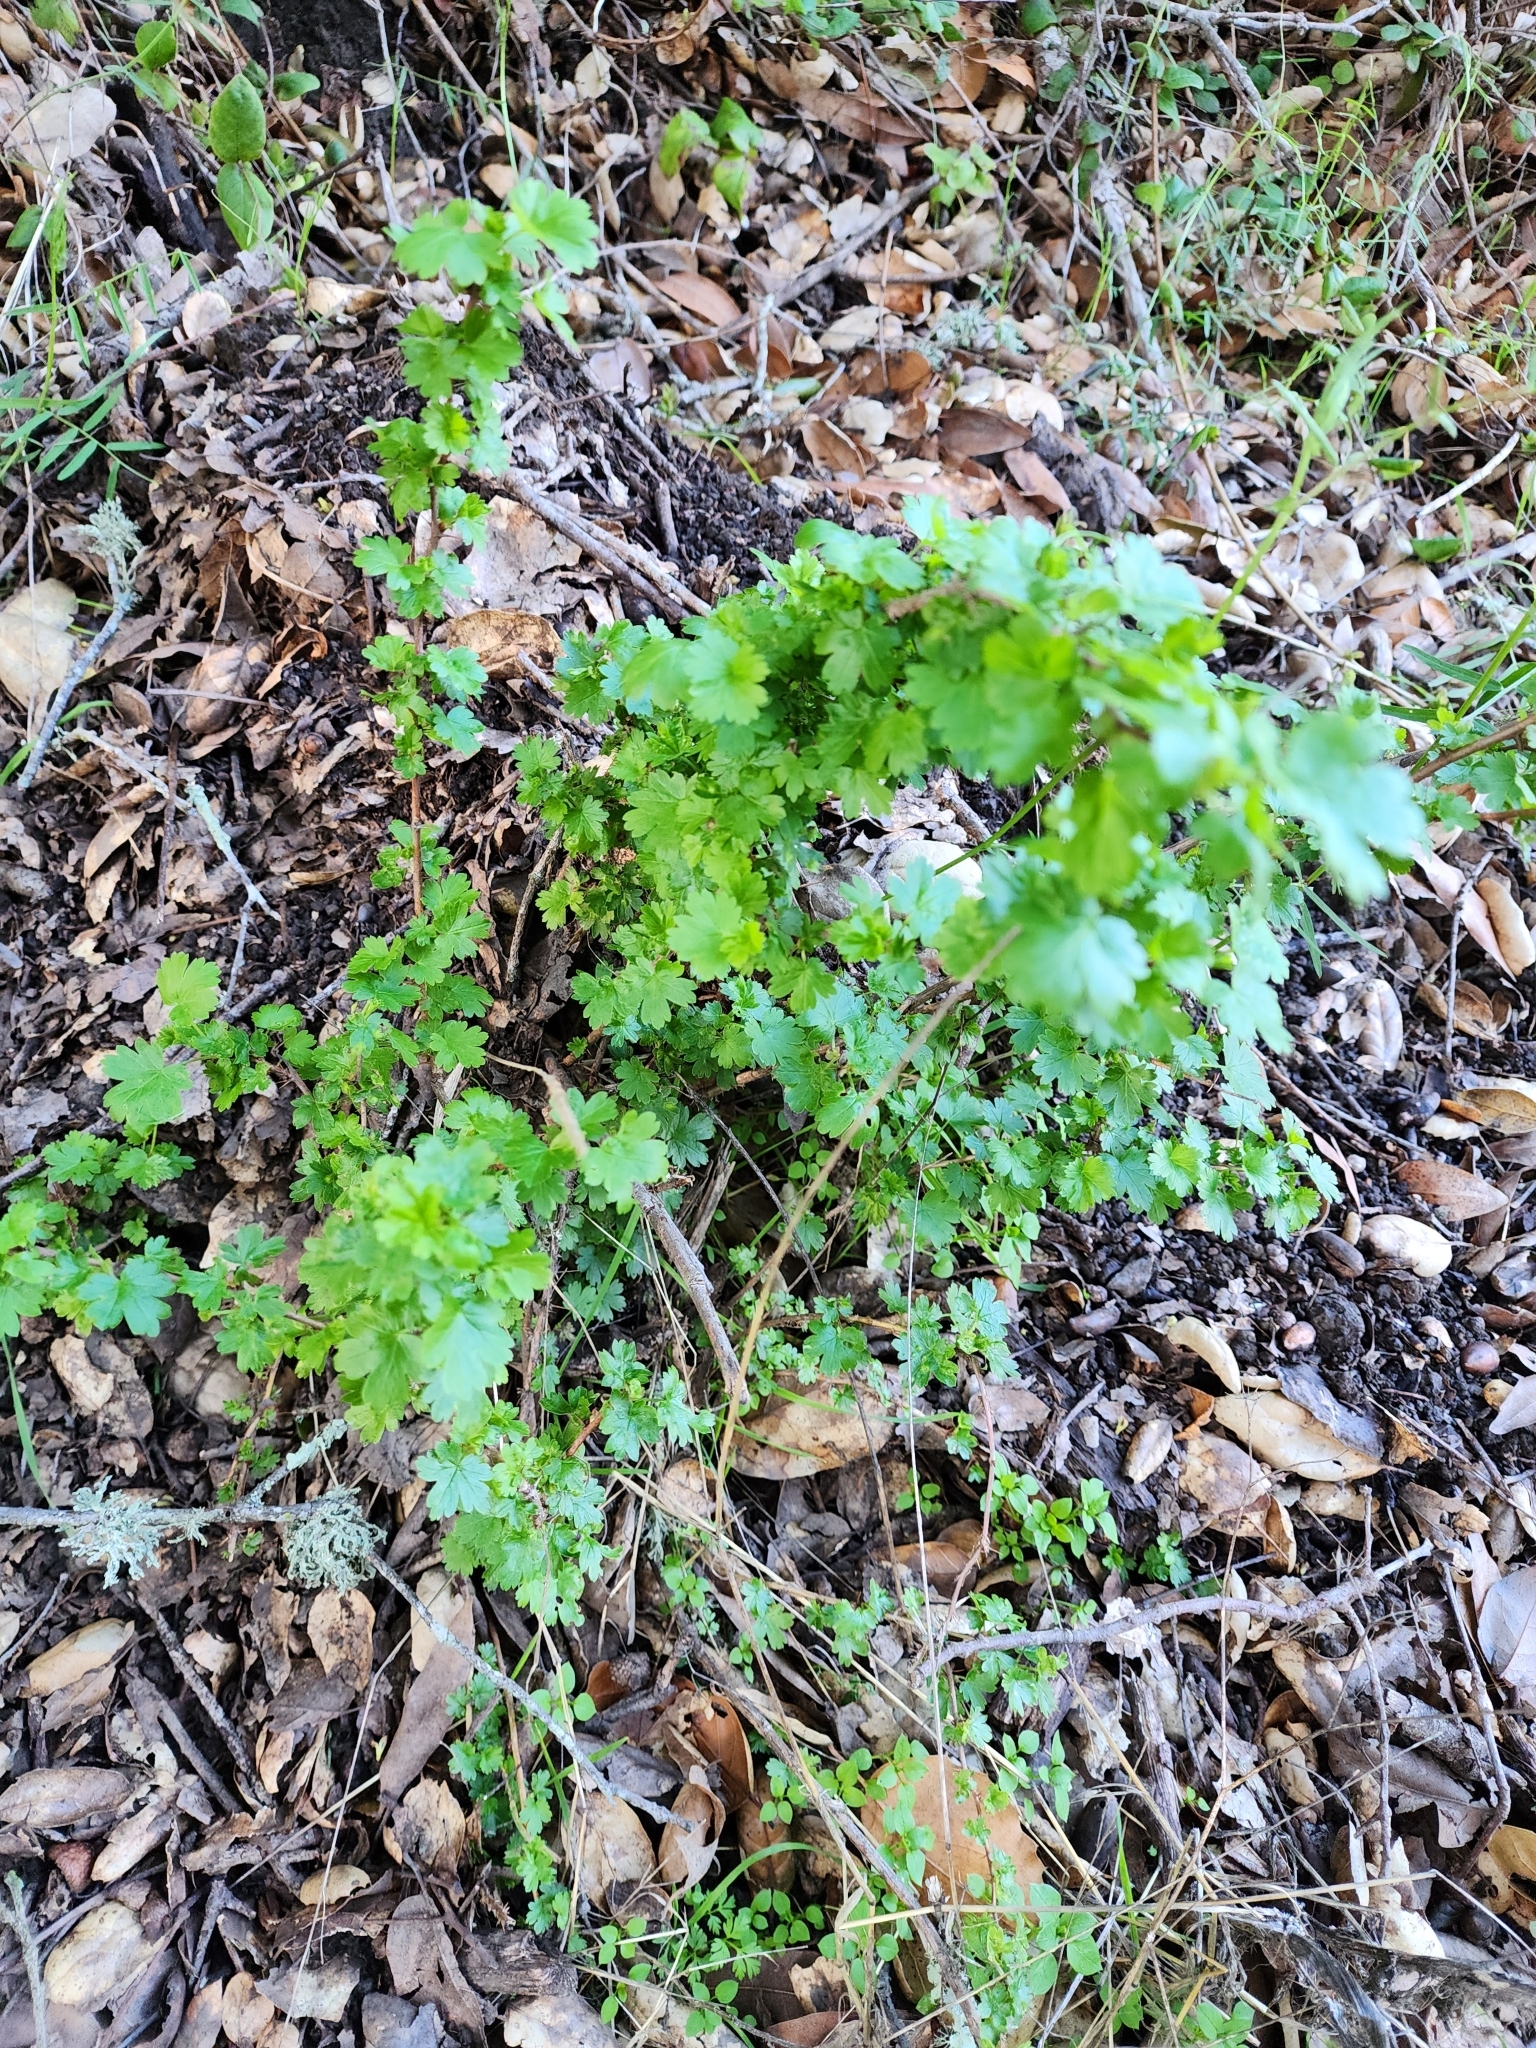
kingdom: Plantae
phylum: Tracheophyta
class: Magnoliopsida
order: Saxifragales
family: Grossulariaceae
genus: Ribes
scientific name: Ribes californicum
